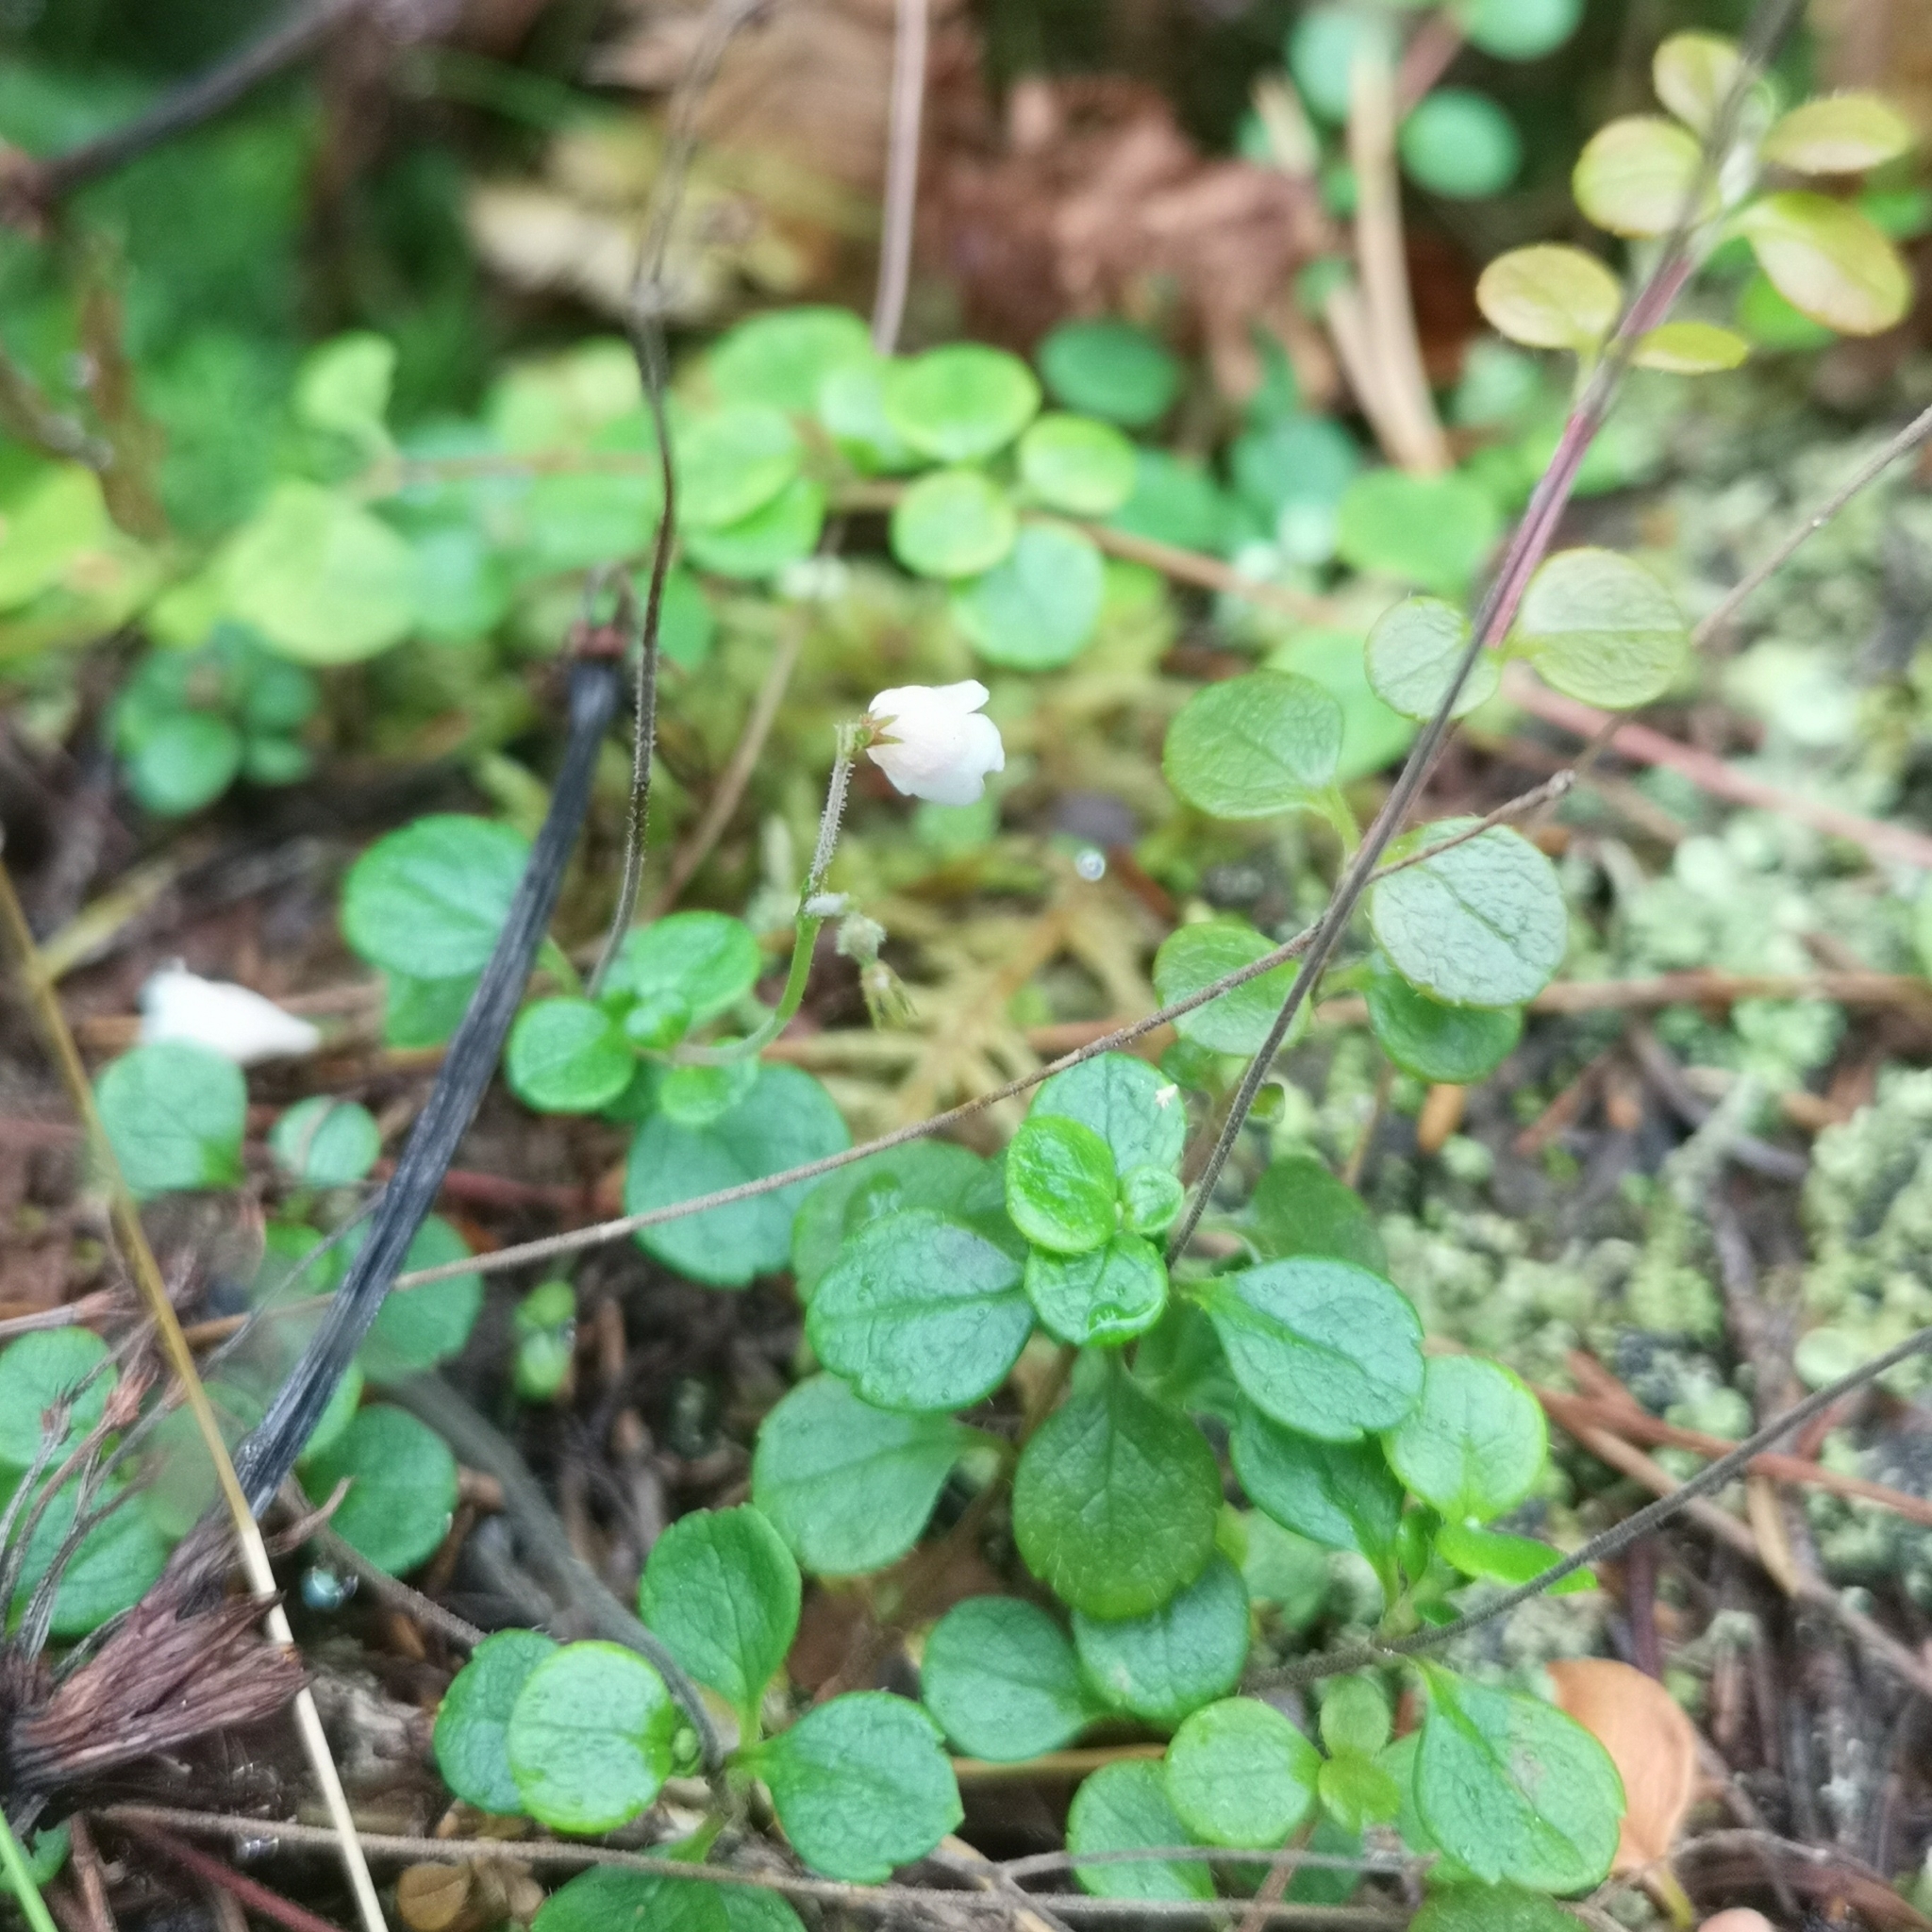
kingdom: Plantae
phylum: Tracheophyta
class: Magnoliopsida
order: Dipsacales
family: Caprifoliaceae
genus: Linnaea
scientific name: Linnaea borealis
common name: Twinflower
